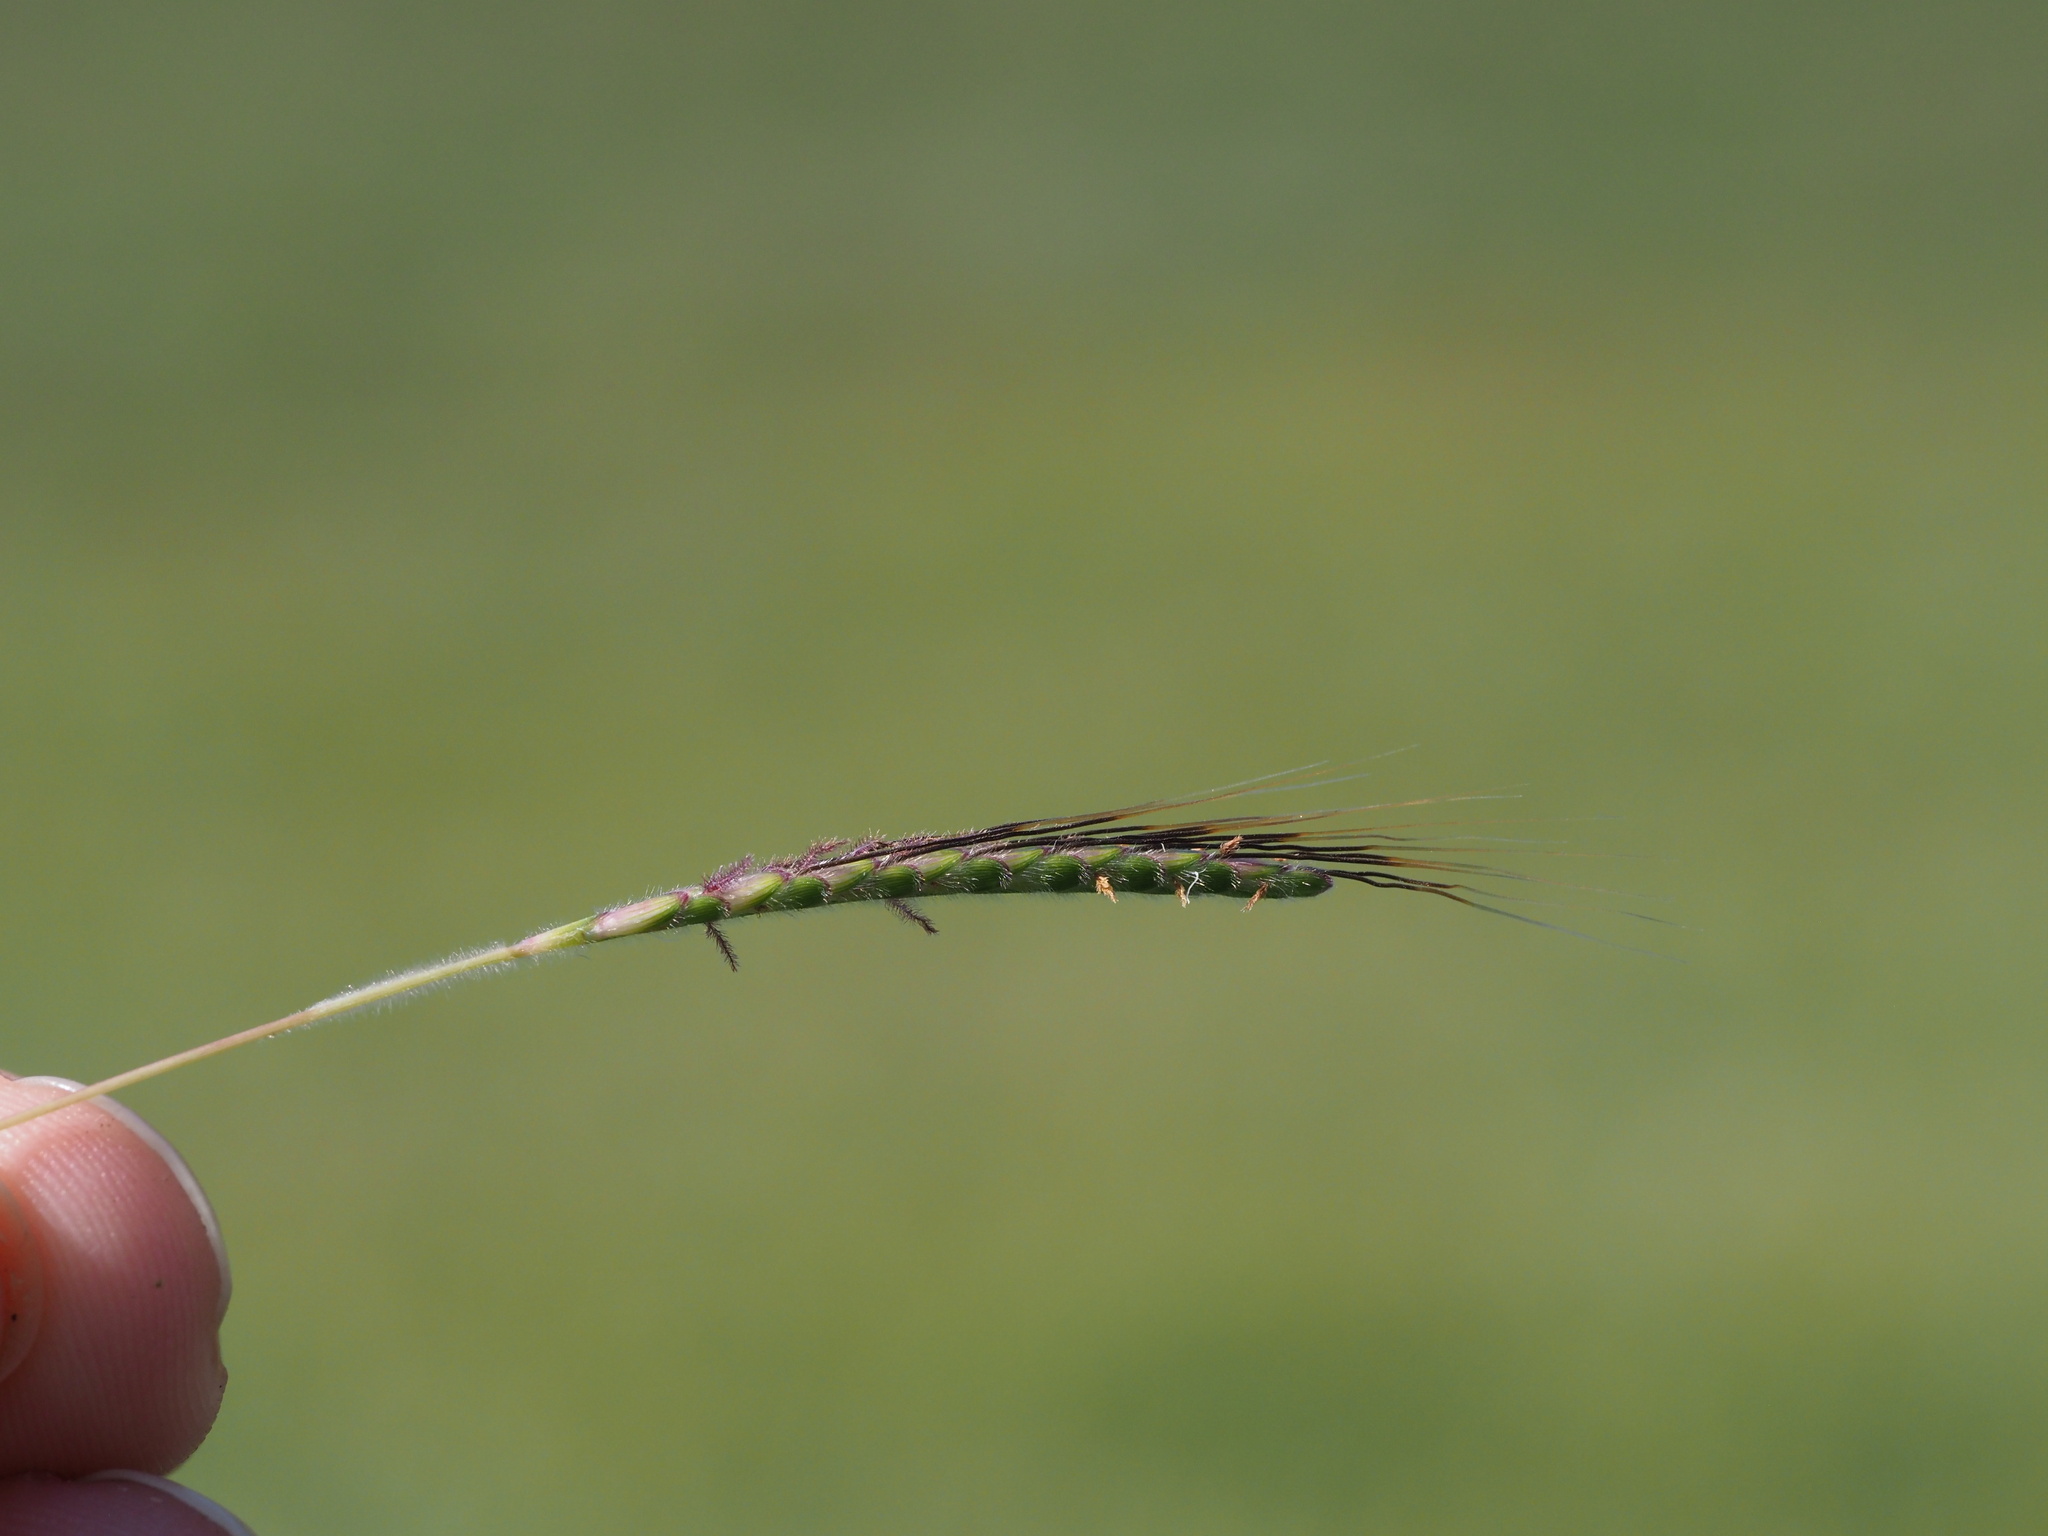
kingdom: Plantae
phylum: Tracheophyta
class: Liliopsida
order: Poales
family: Poaceae
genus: Dichanthium
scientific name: Dichanthium aristatum
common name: Angleton bluestem
